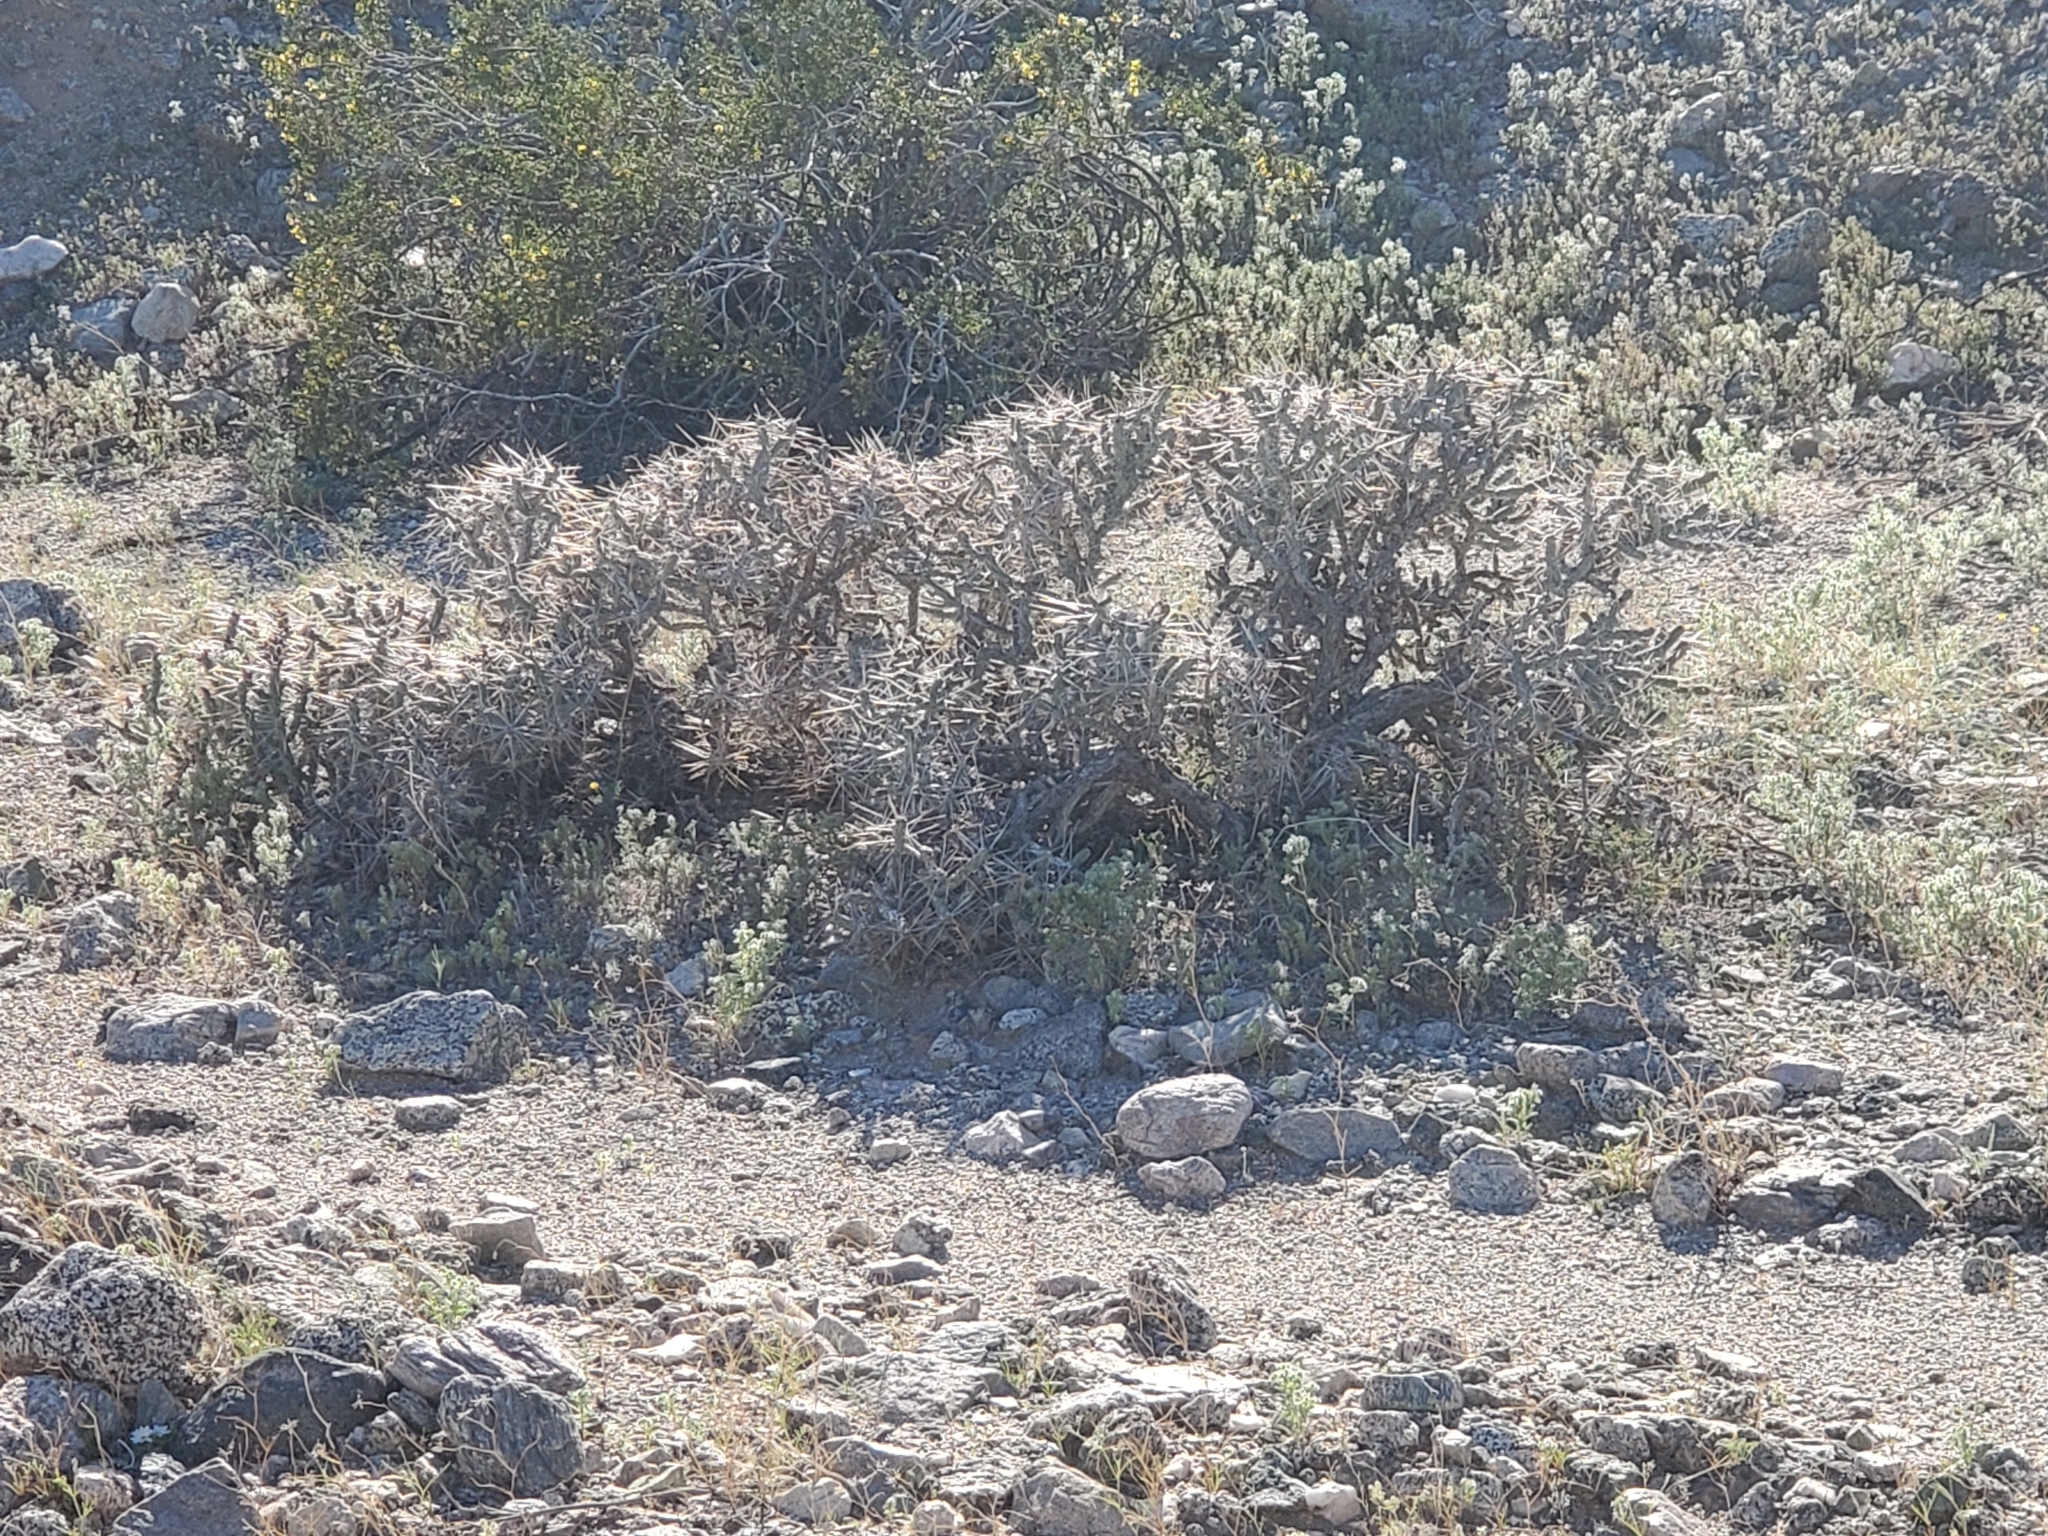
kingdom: Plantae
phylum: Tracheophyta
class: Magnoliopsida
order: Caryophyllales
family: Cactaceae
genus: Cylindropuntia
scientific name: Cylindropuntia ramosissima
